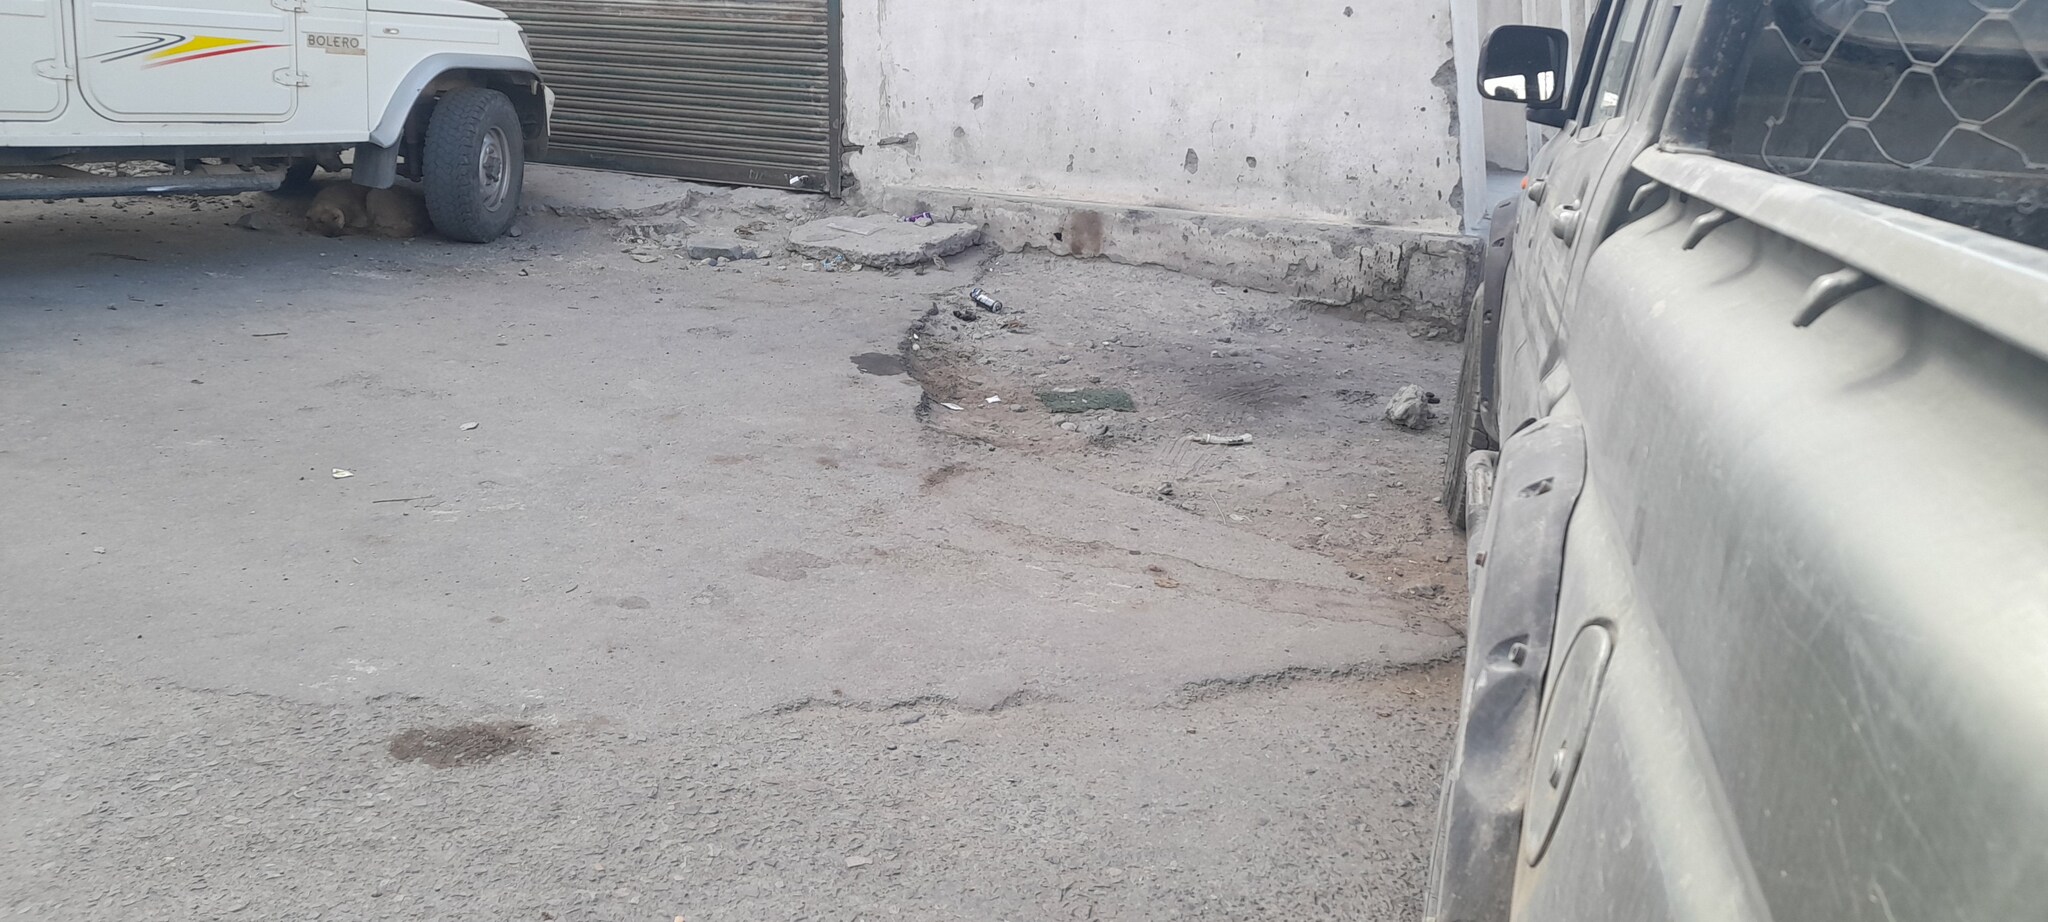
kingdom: Animalia
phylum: Chordata
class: Aves
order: Passeriformes
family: Passeridae
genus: Passer
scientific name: Passer domesticus
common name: House sparrow
